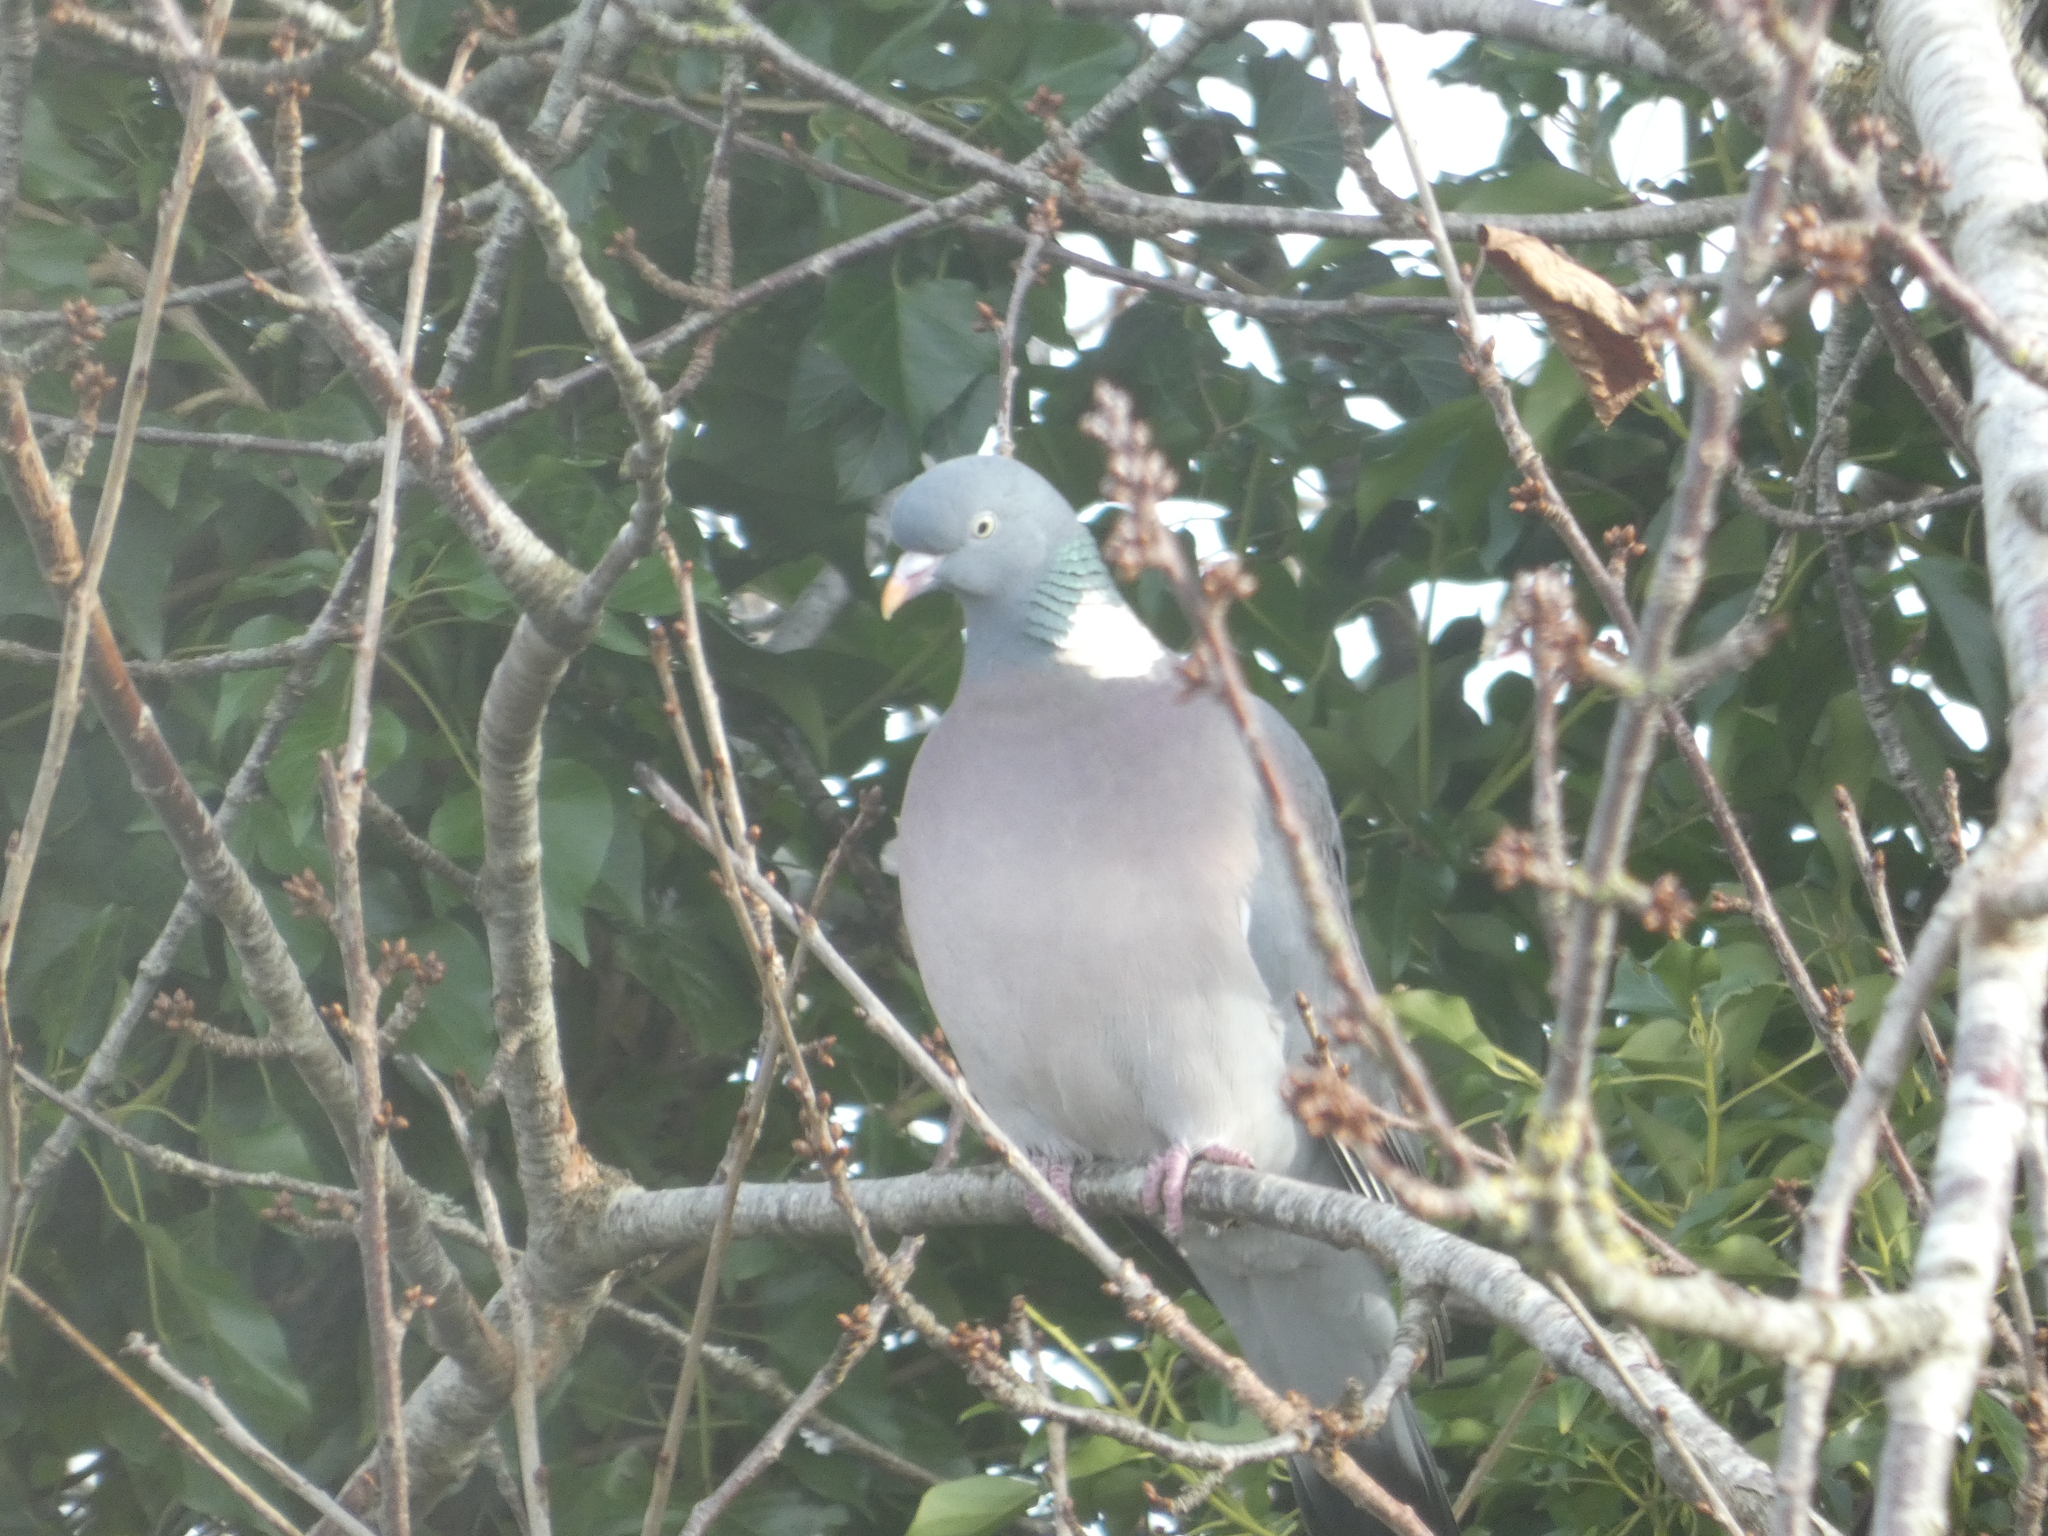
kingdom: Animalia
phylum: Chordata
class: Aves
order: Columbiformes
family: Columbidae
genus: Columba
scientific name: Columba palumbus
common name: Common wood pigeon
